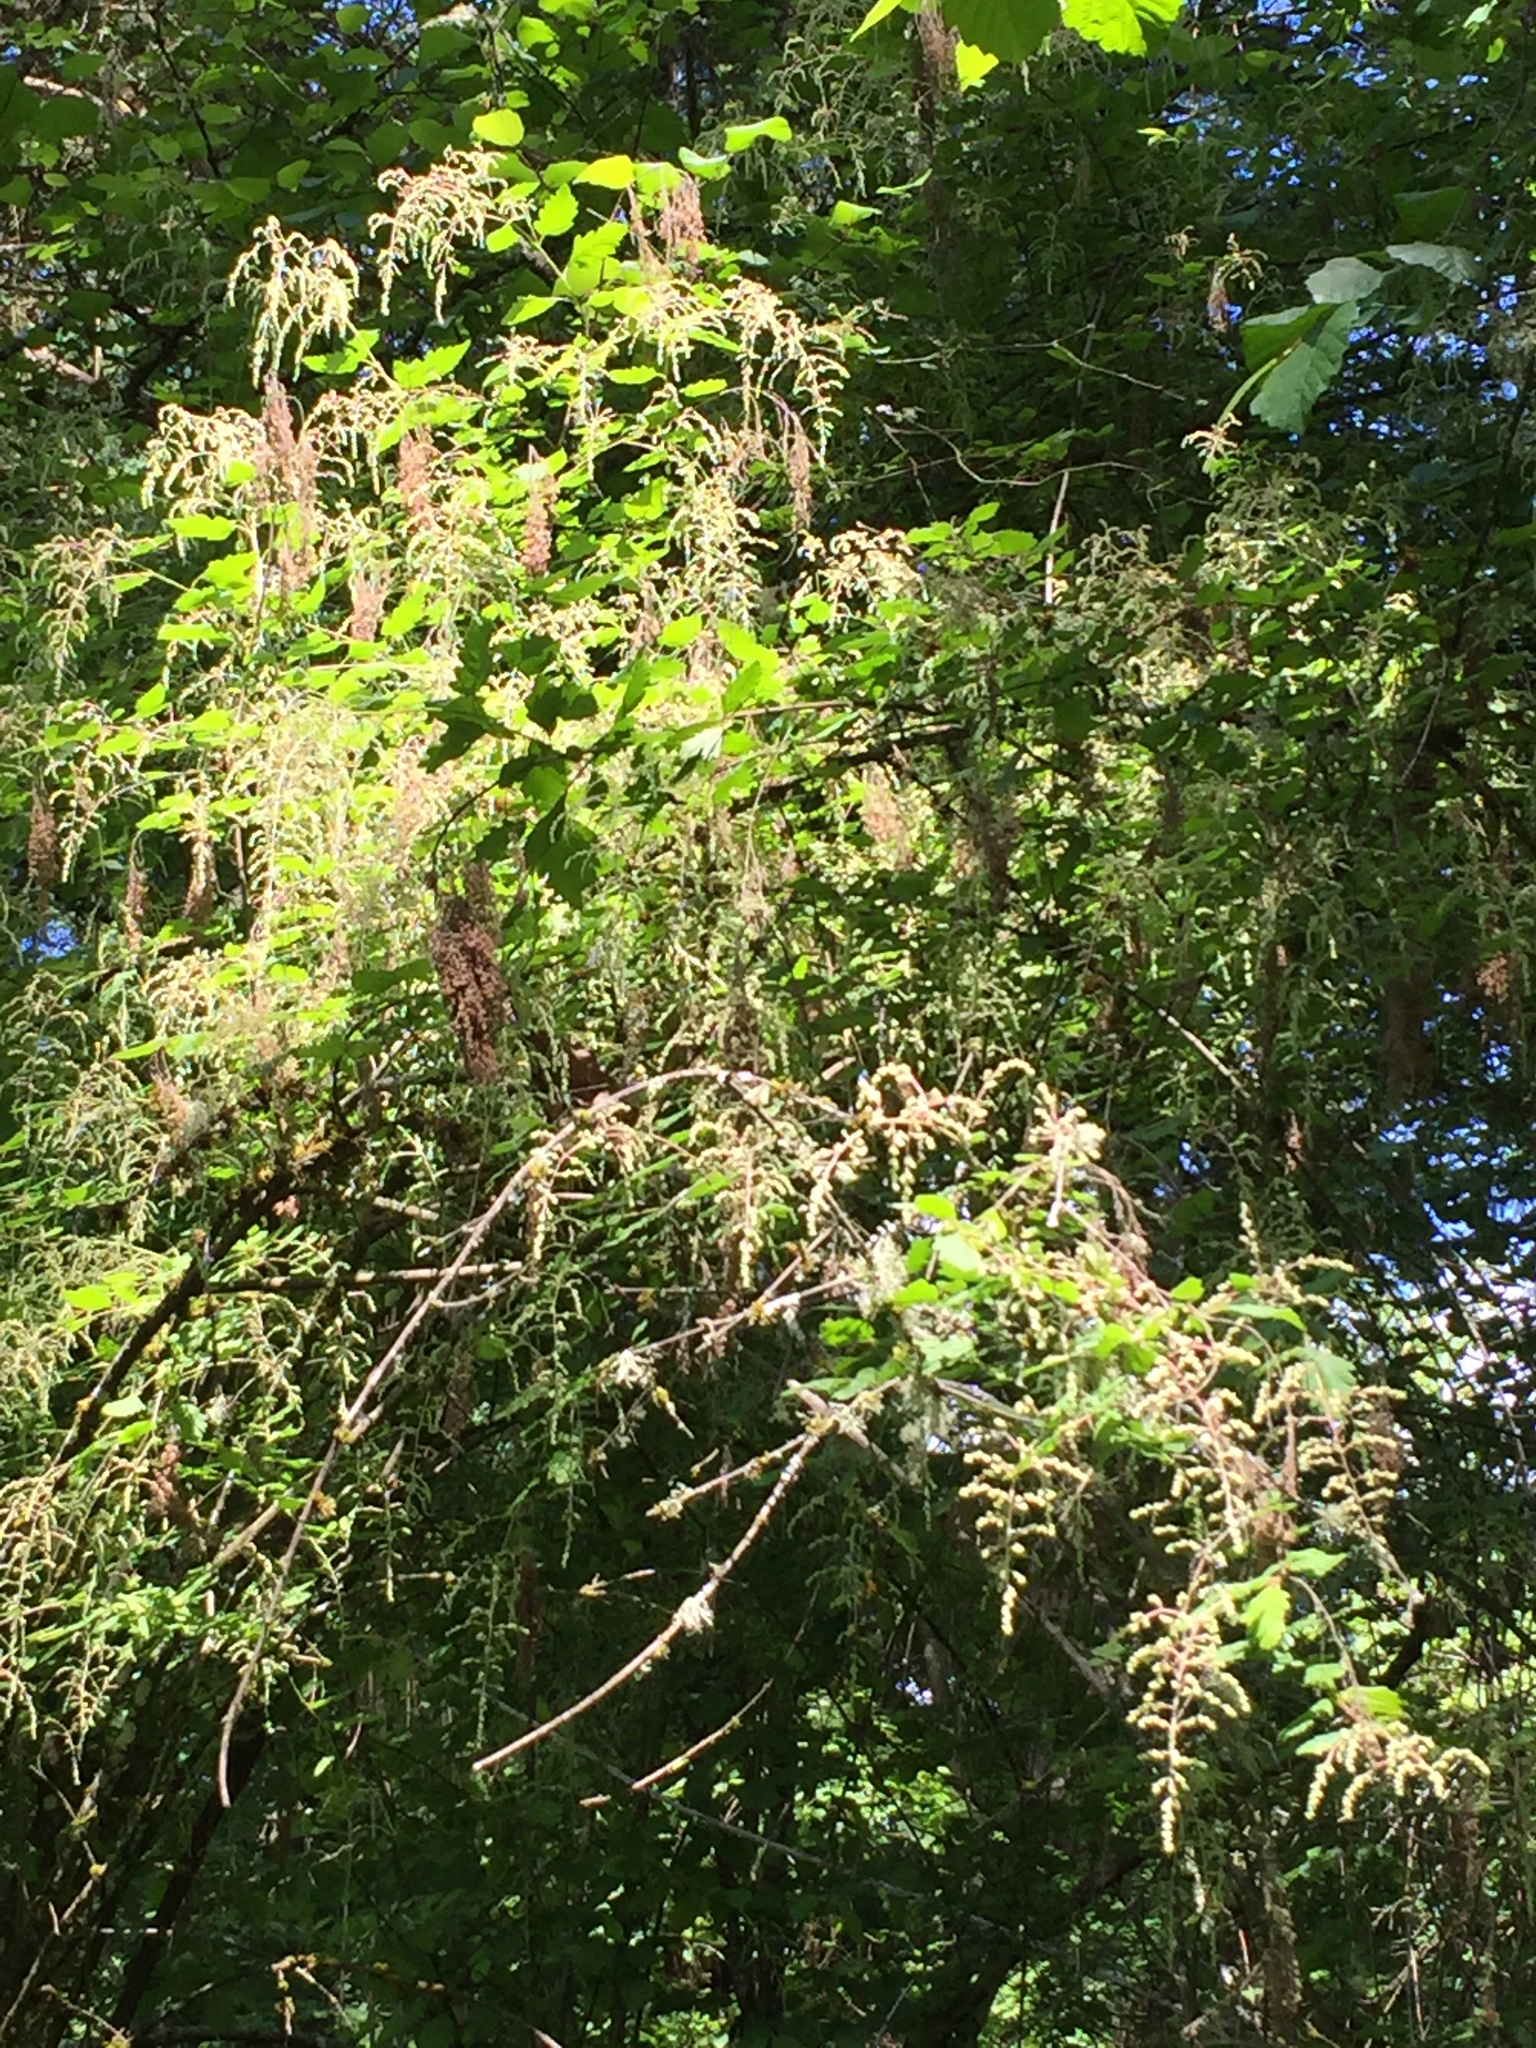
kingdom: Plantae
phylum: Tracheophyta
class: Magnoliopsida
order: Rosales
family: Rosaceae
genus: Holodiscus
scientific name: Holodiscus discolor
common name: Oceanspray
